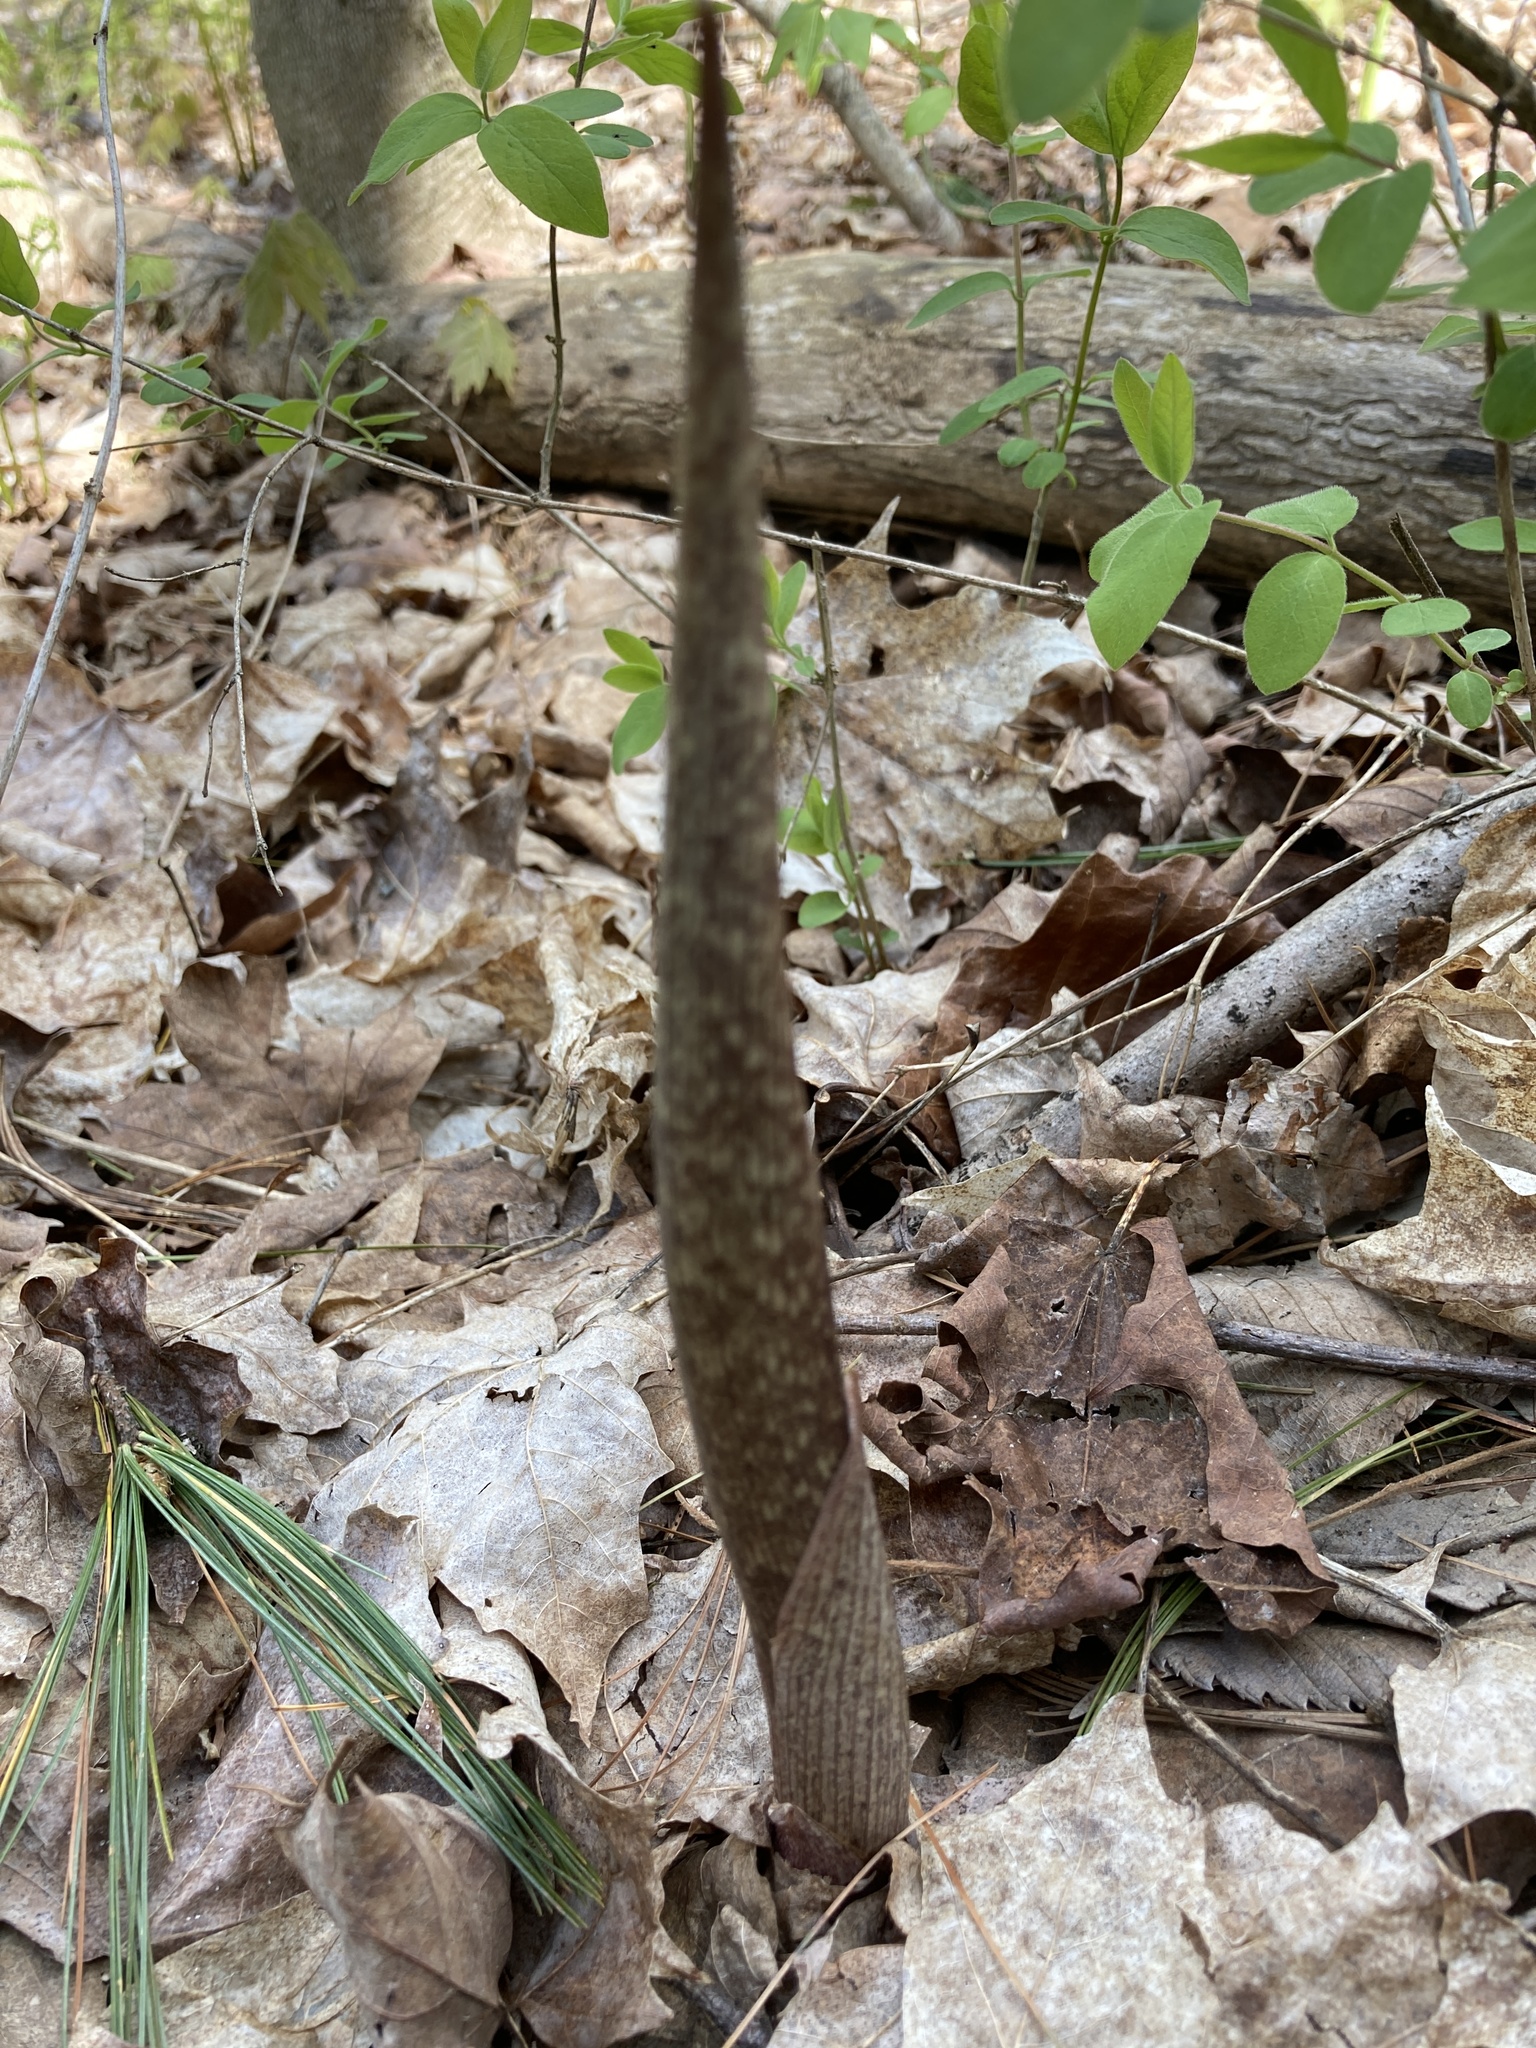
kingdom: Plantae
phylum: Tracheophyta
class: Liliopsida
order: Alismatales
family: Araceae
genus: Arisaema
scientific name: Arisaema triphyllum
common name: Jack-in-the-pulpit
